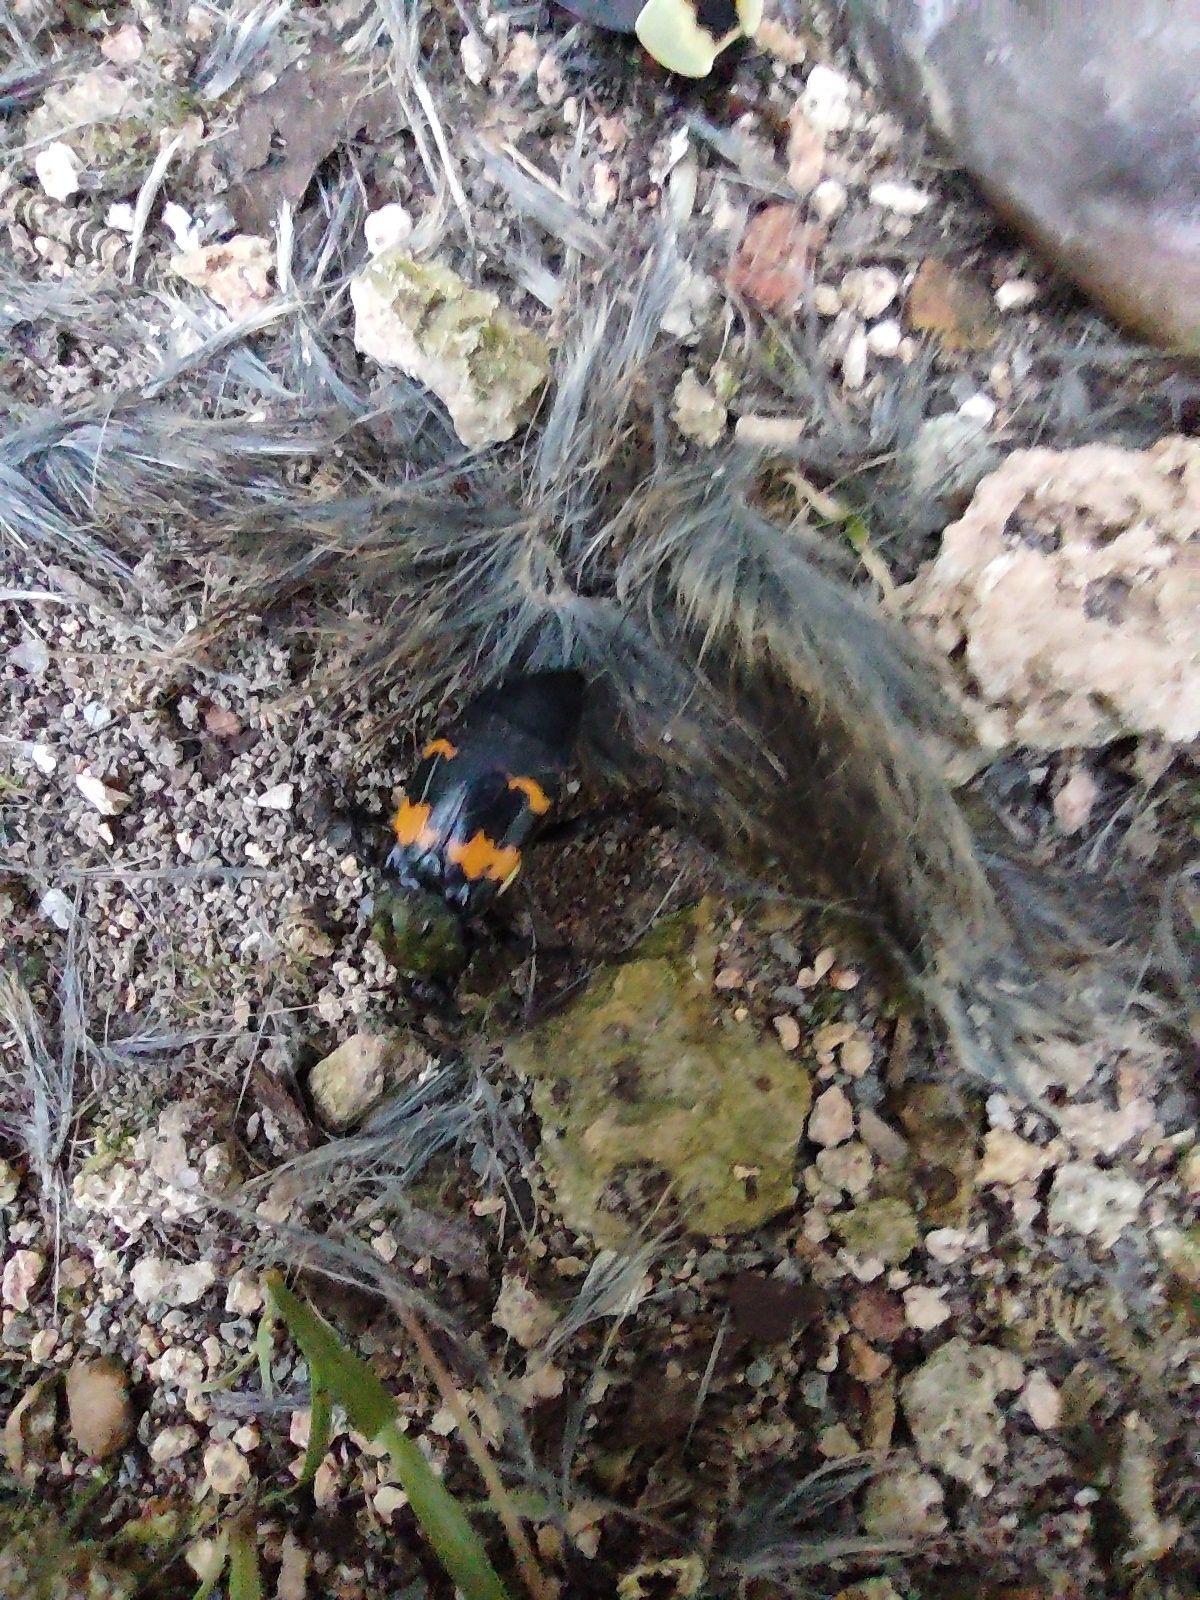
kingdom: Animalia
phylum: Arthropoda
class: Insecta
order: Coleoptera
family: Staphylinidae
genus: Nicrophorus
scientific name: Nicrophorus tomentosus
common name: Tomentose burying beetle
